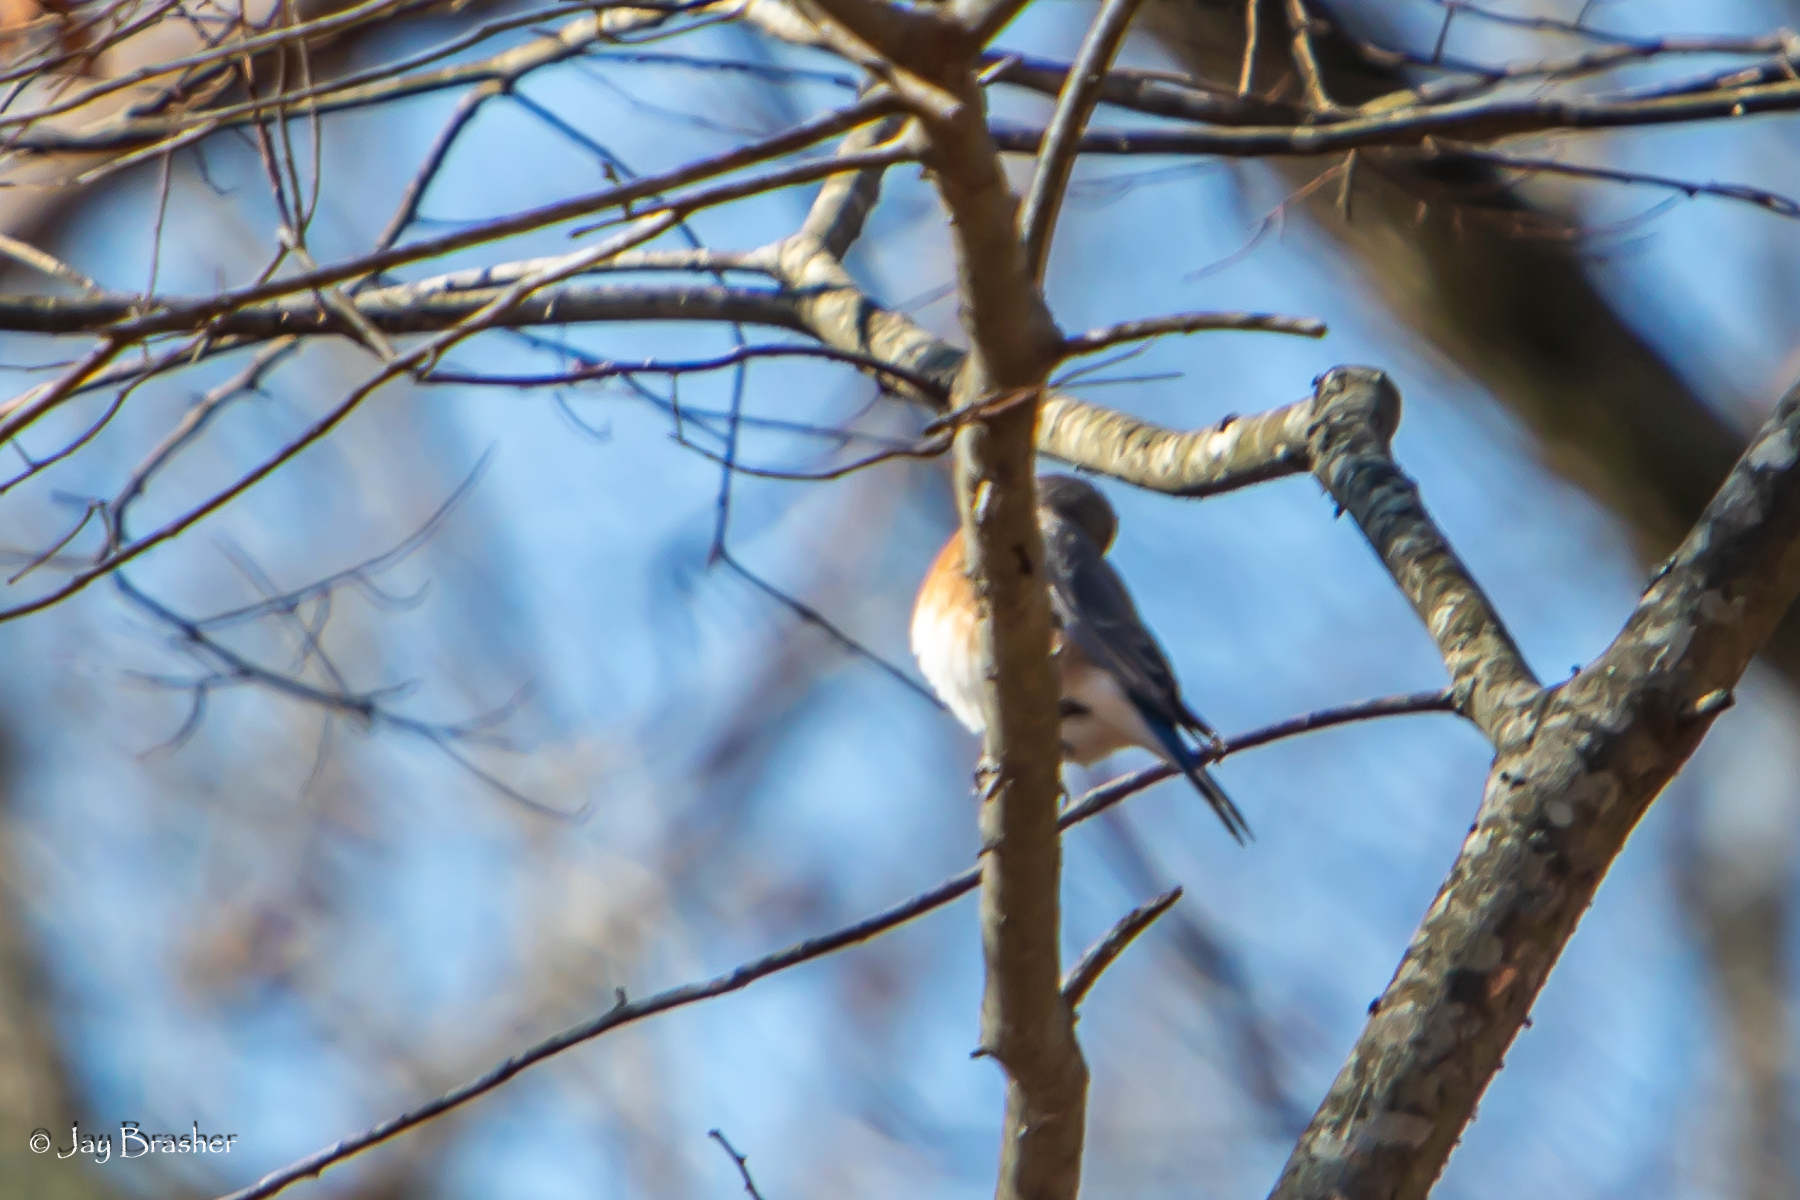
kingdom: Animalia
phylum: Chordata
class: Aves
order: Passeriformes
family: Turdidae
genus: Sialia
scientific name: Sialia sialis
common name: Eastern bluebird
